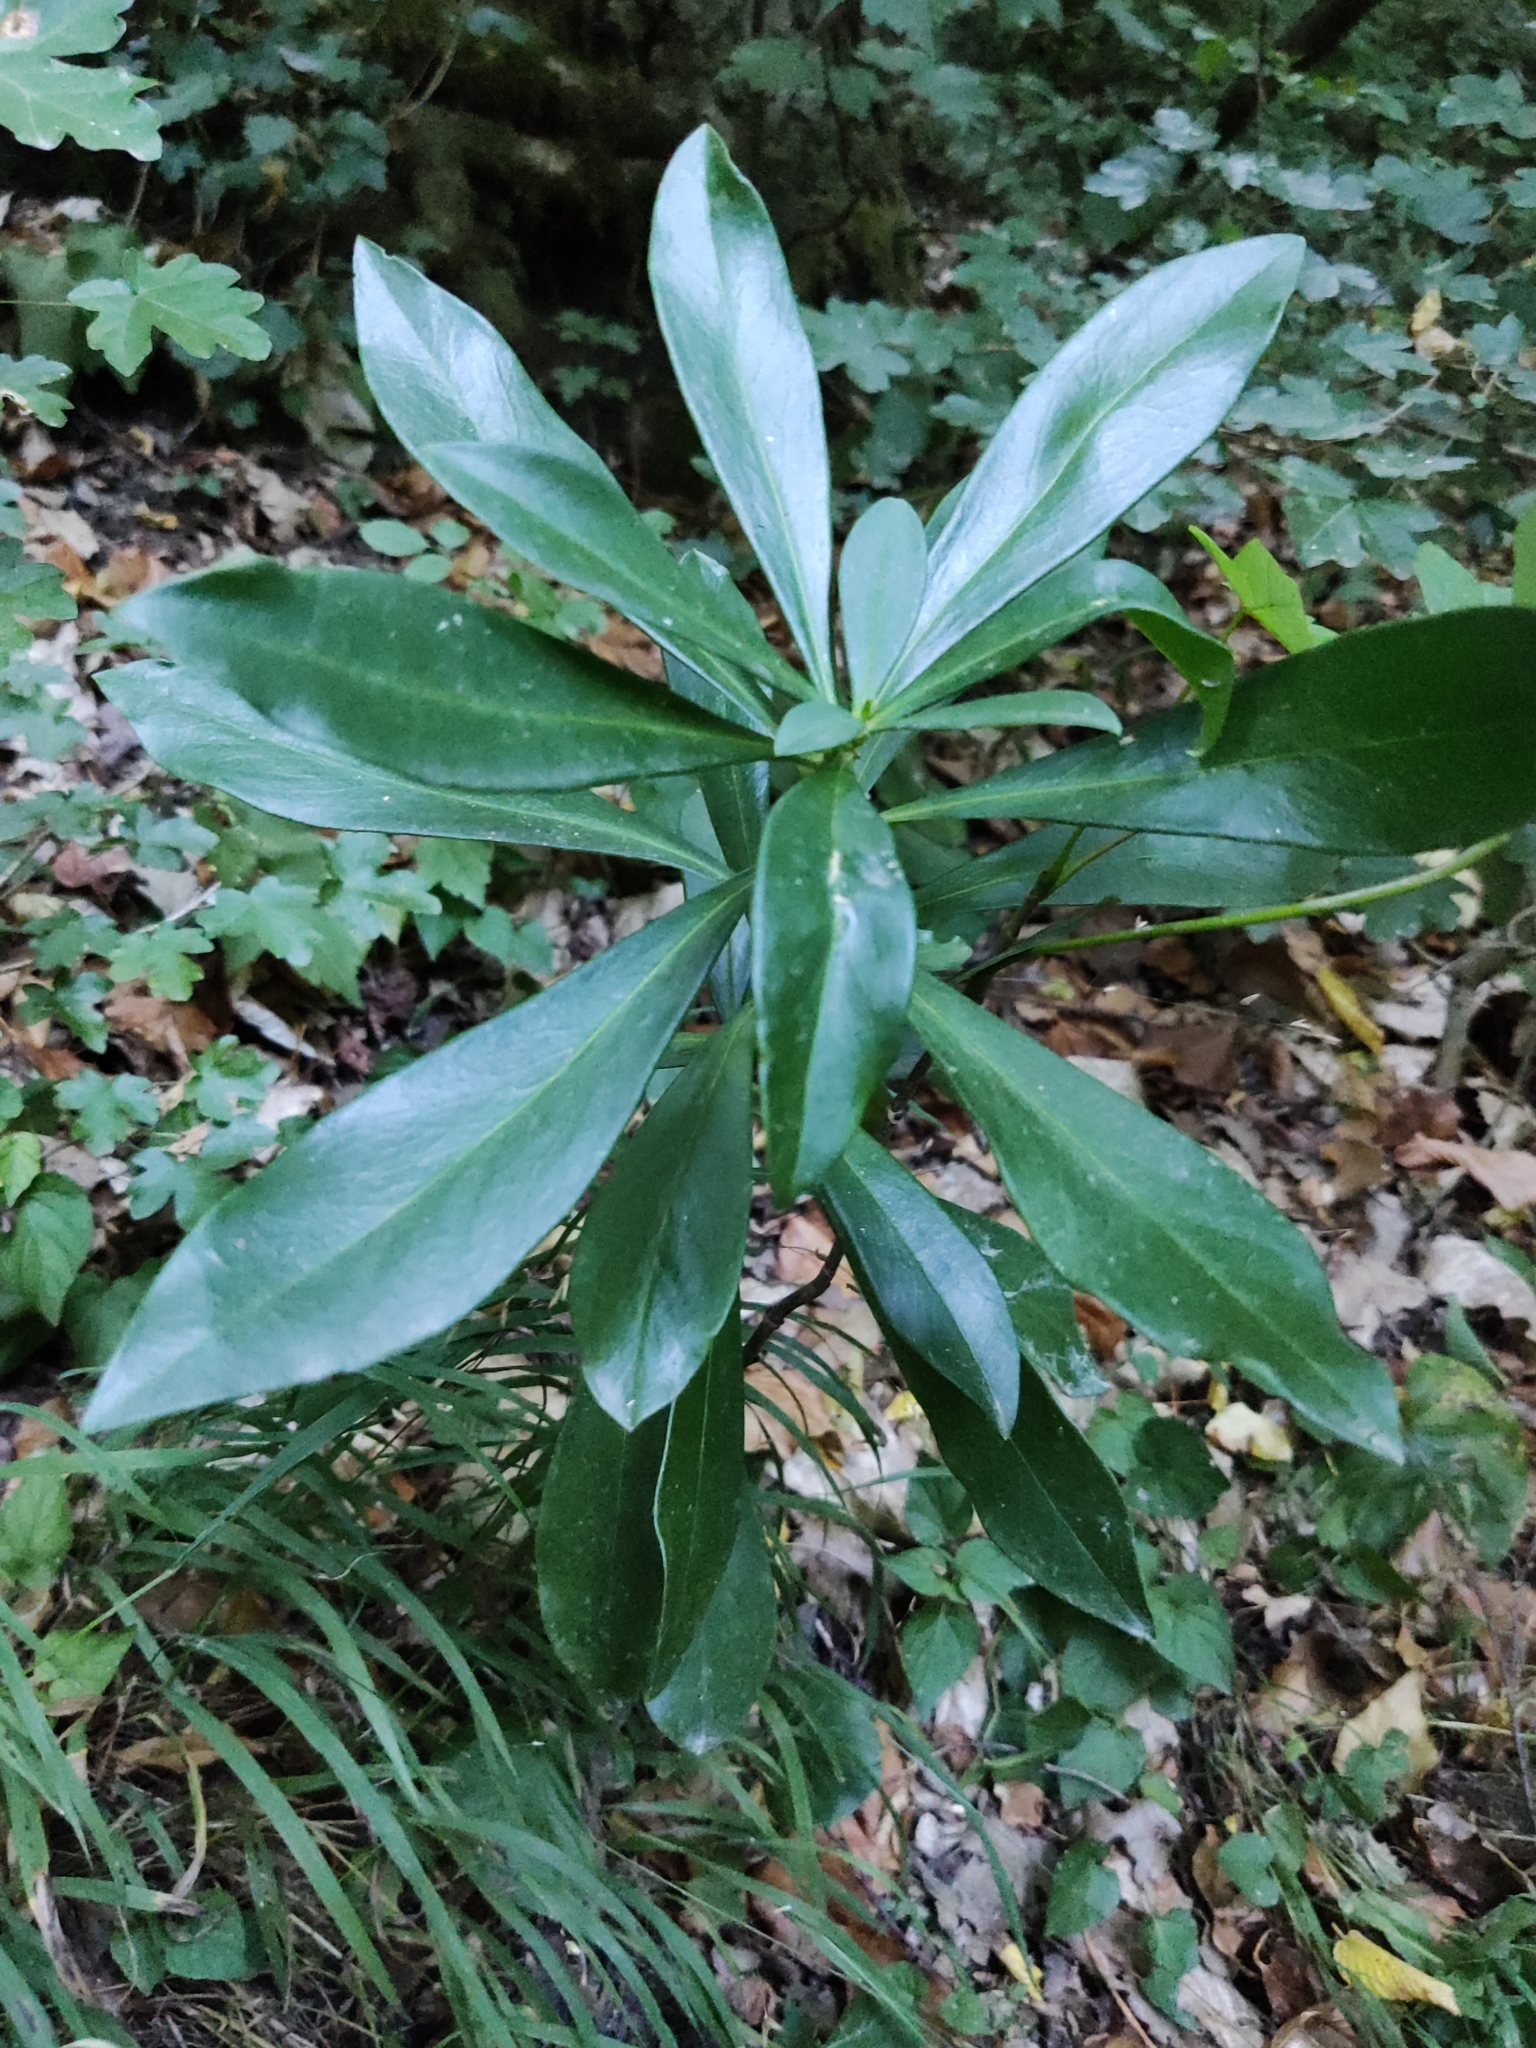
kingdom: Plantae
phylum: Tracheophyta
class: Magnoliopsida
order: Malvales
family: Thymelaeaceae
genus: Daphne
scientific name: Daphne laureola
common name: Spurge-laurel
